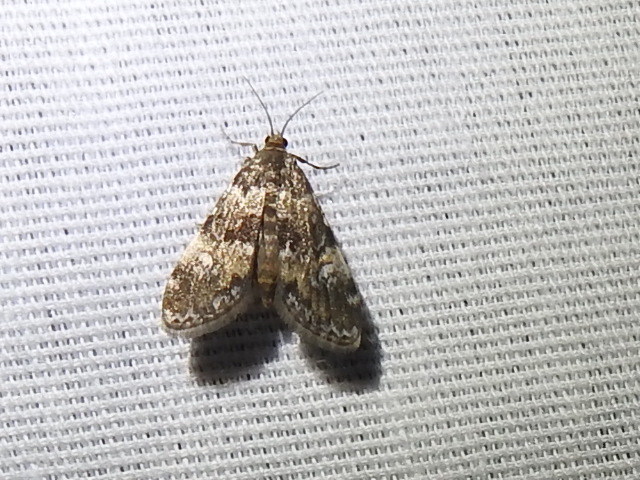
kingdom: Animalia
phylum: Arthropoda
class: Insecta
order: Lepidoptera
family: Crambidae
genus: Elophila
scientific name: Elophila obliteralis
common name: Waterlily leafcutter moth
